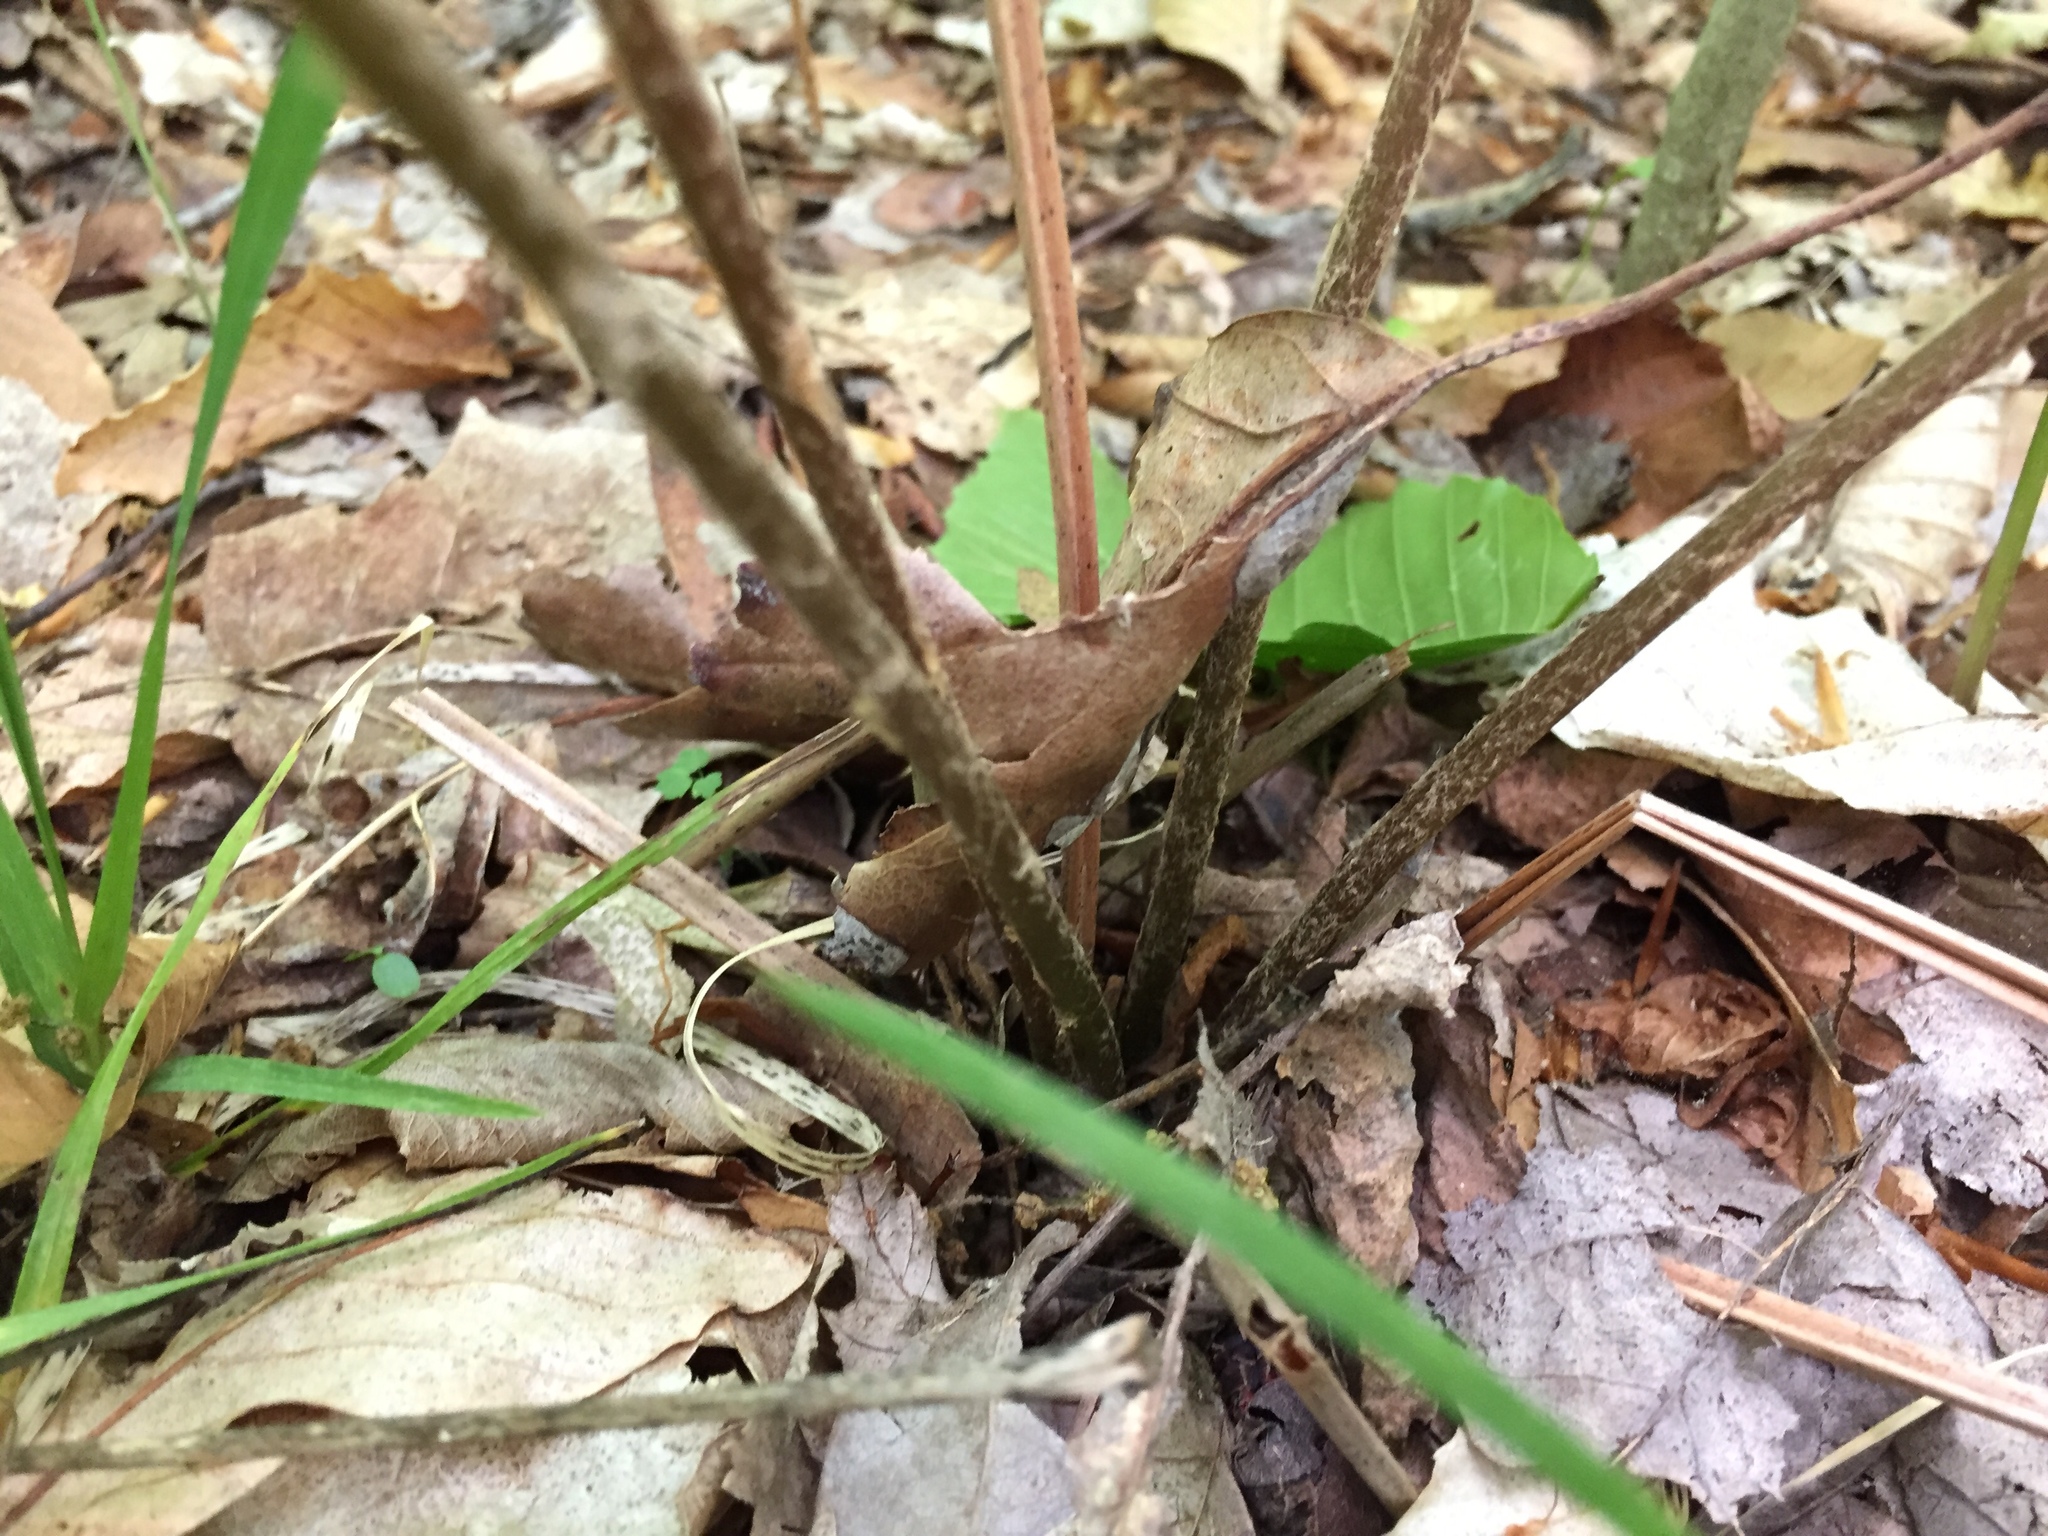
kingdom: Plantae
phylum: Tracheophyta
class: Polypodiopsida
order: Osmundales
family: Osmundaceae
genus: Osmundastrum
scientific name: Osmundastrum cinnamomeum
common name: Cinnamon fern
